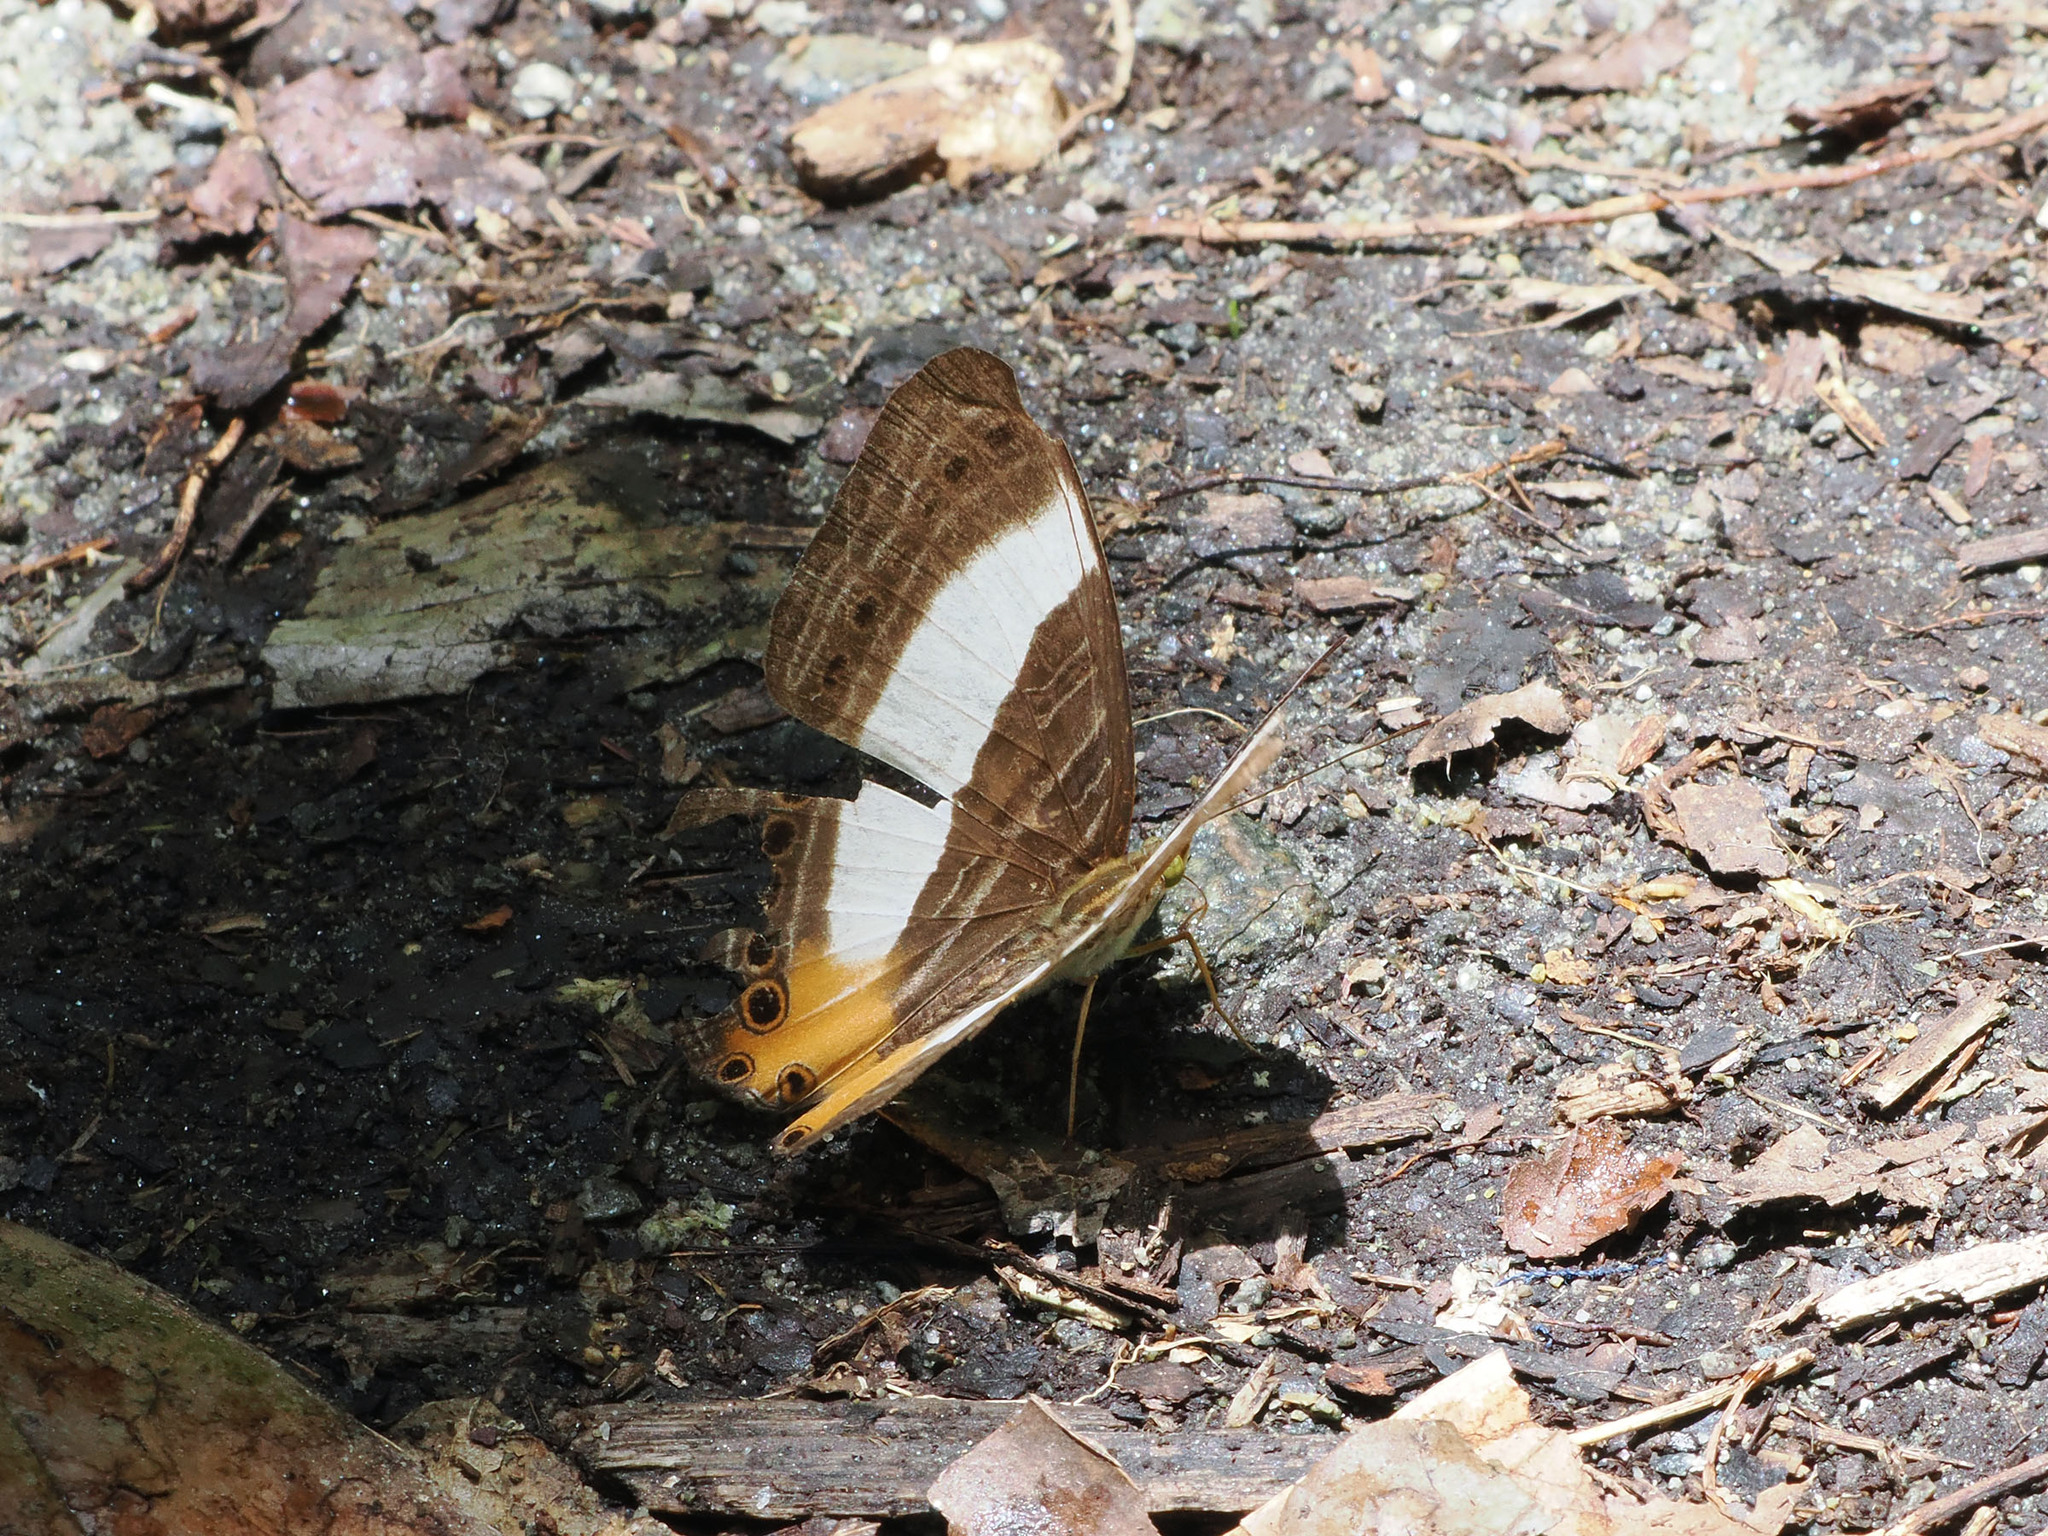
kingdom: Animalia
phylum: Arthropoda
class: Insecta
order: Lepidoptera
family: Nymphalidae
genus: Cyrestis
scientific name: Cyrestis acilia
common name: Godart's map butterfly
